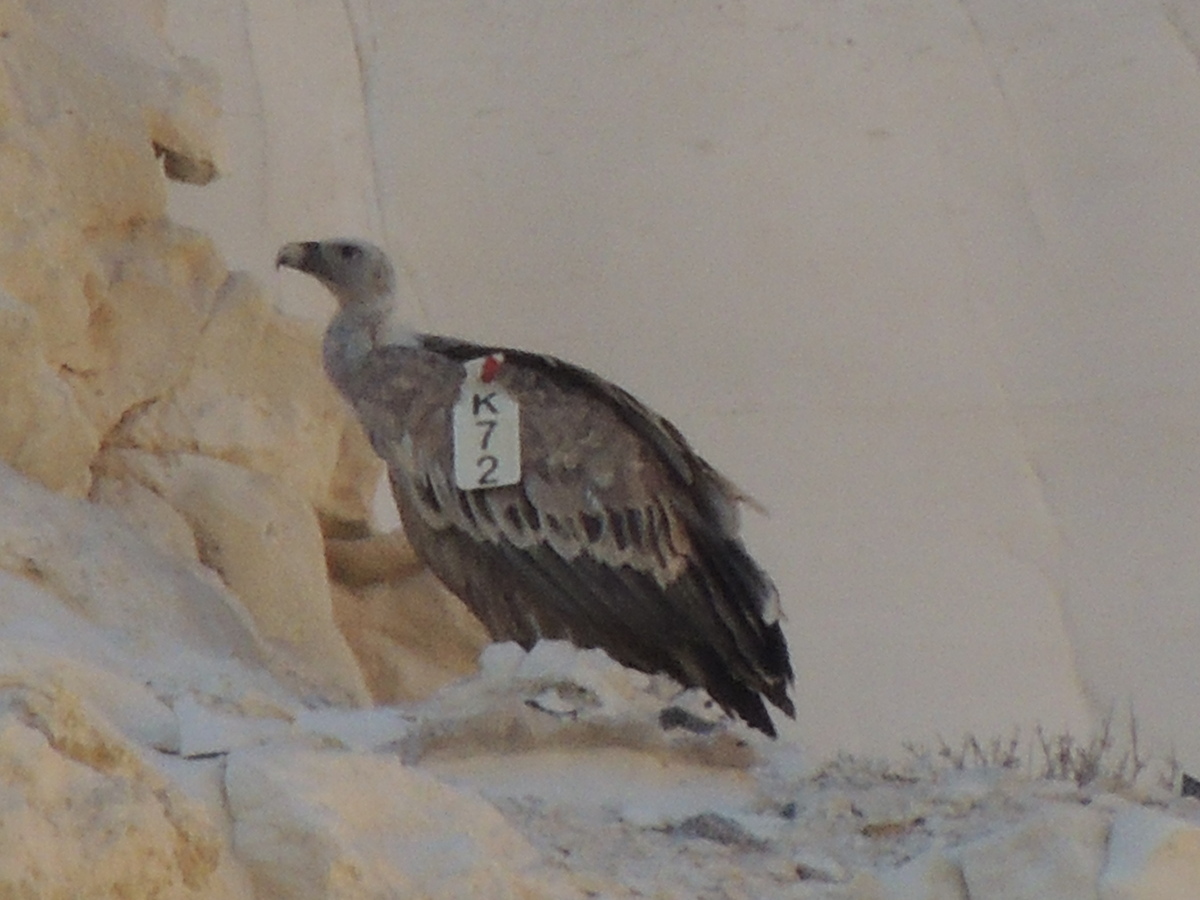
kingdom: Animalia
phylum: Chordata
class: Aves
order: Accipitriformes
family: Accipitridae
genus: Gyps
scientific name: Gyps fulvus
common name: Griffon vulture
